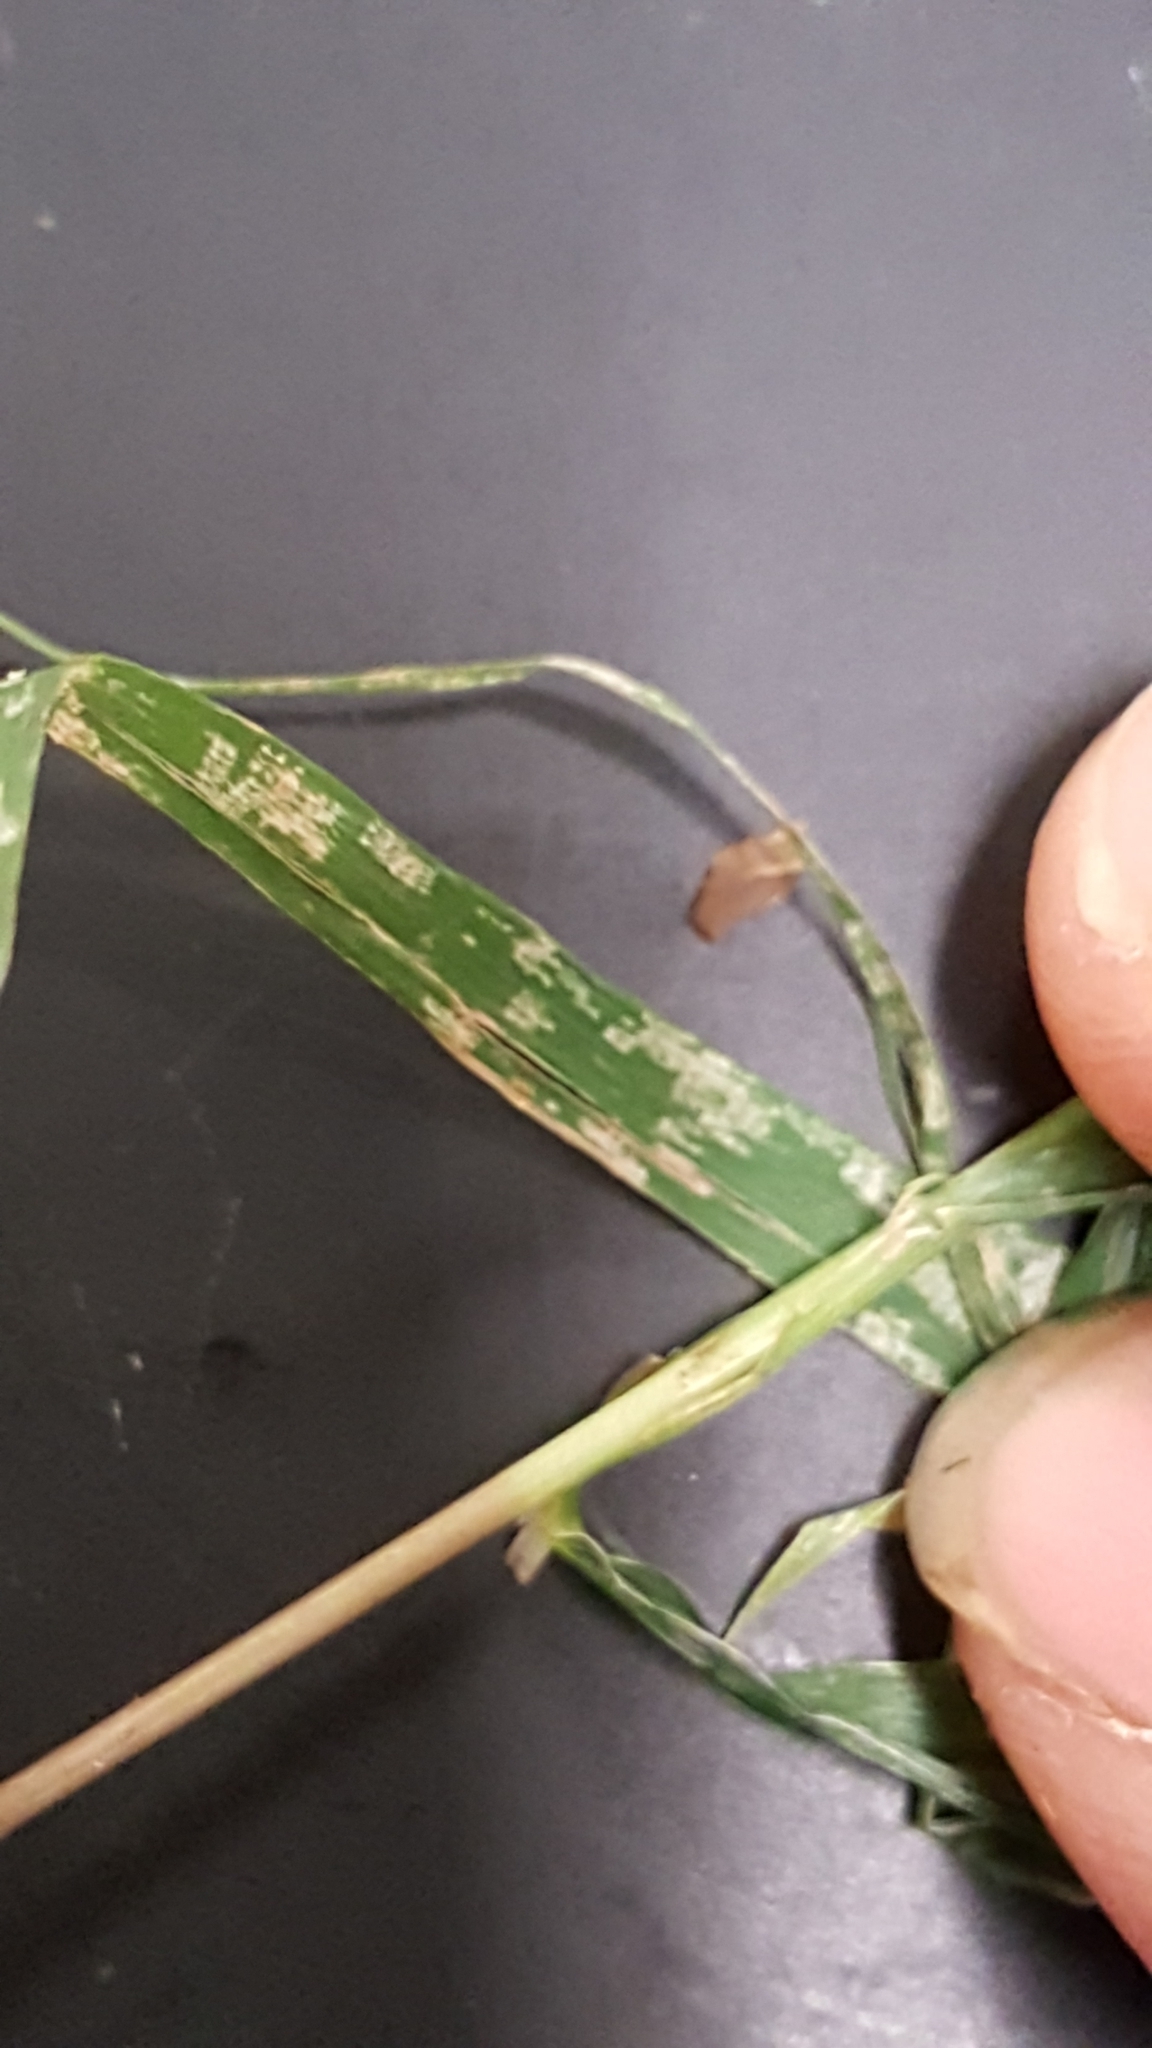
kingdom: Plantae
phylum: Tracheophyta
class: Liliopsida
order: Poales
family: Poaceae
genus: Cinna
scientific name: Cinna latifolia
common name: Drooping woodreed
